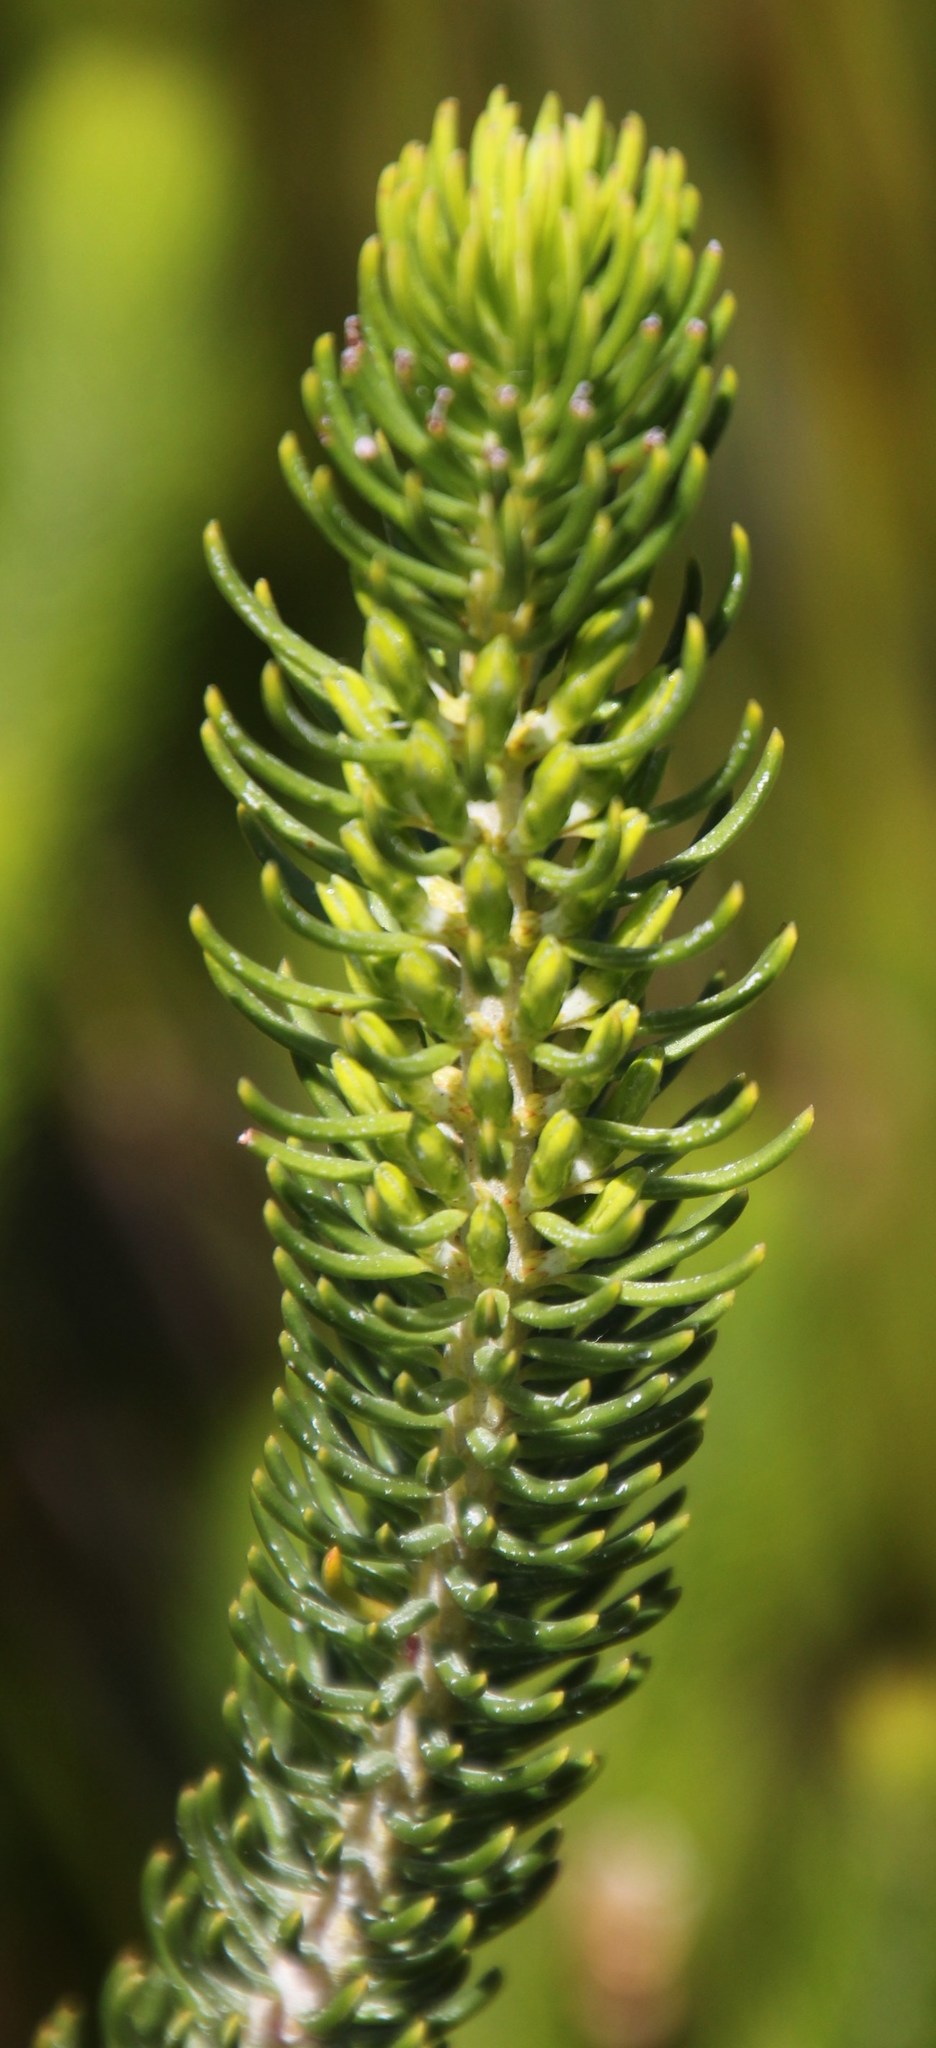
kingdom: Plantae
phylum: Tracheophyta
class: Magnoliopsida
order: Ericales
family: Ericaceae
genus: Erica
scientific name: Erica thomae
